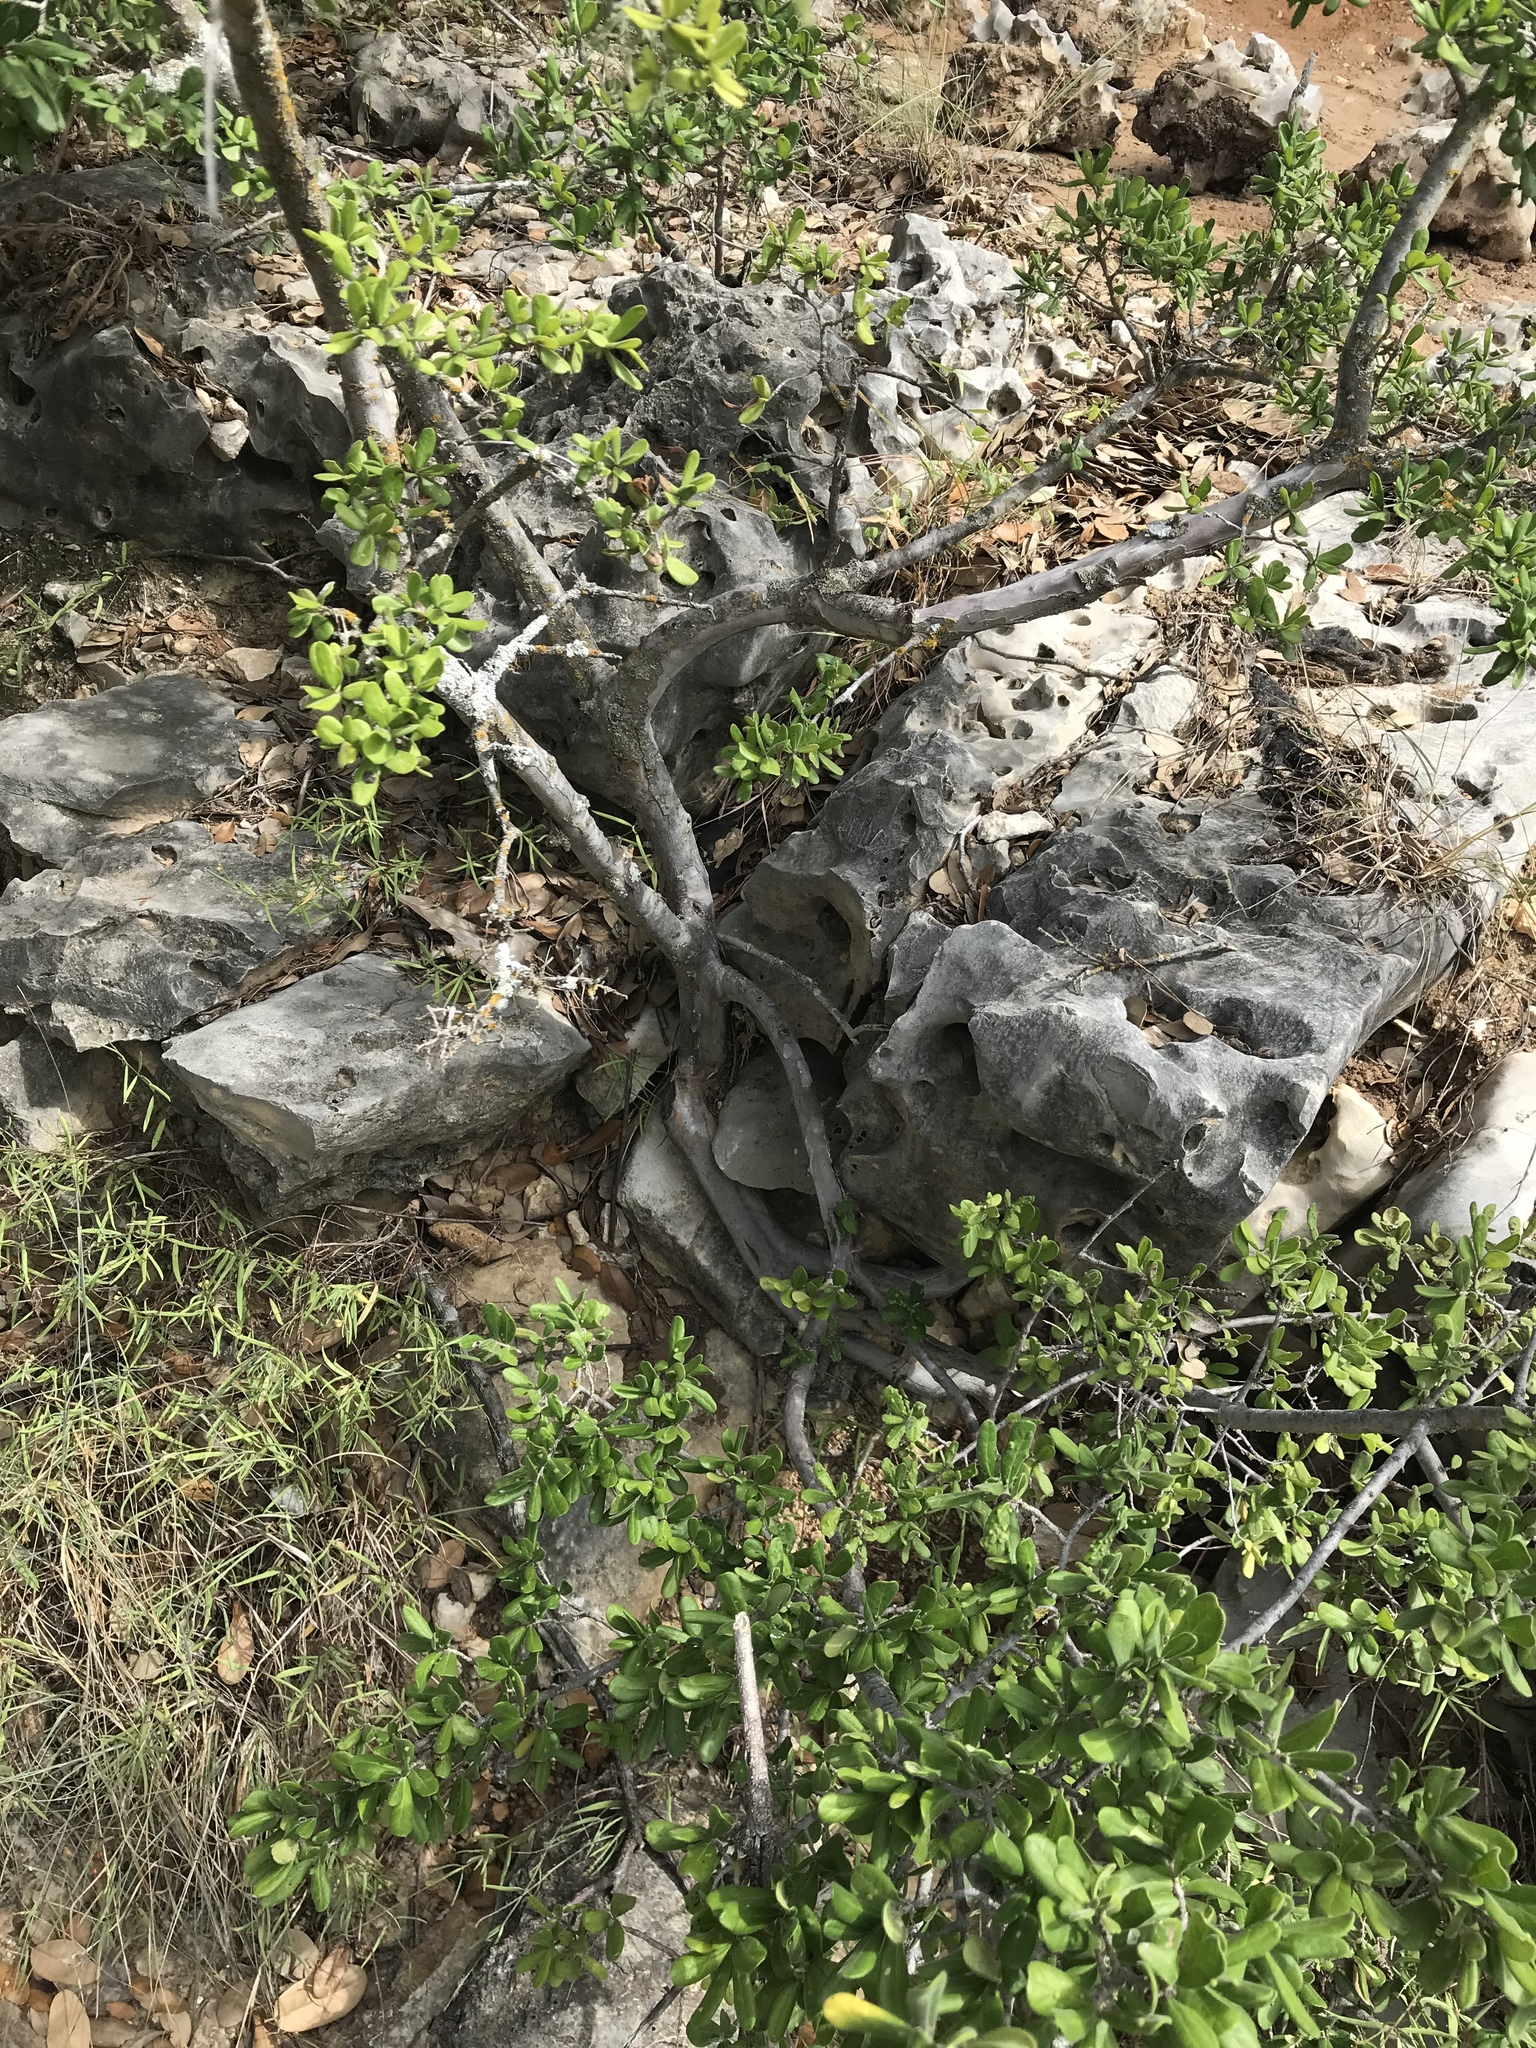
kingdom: Plantae
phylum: Tracheophyta
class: Magnoliopsida
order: Ericales
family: Ebenaceae
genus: Diospyros
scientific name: Diospyros texana
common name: Texas persimmon
